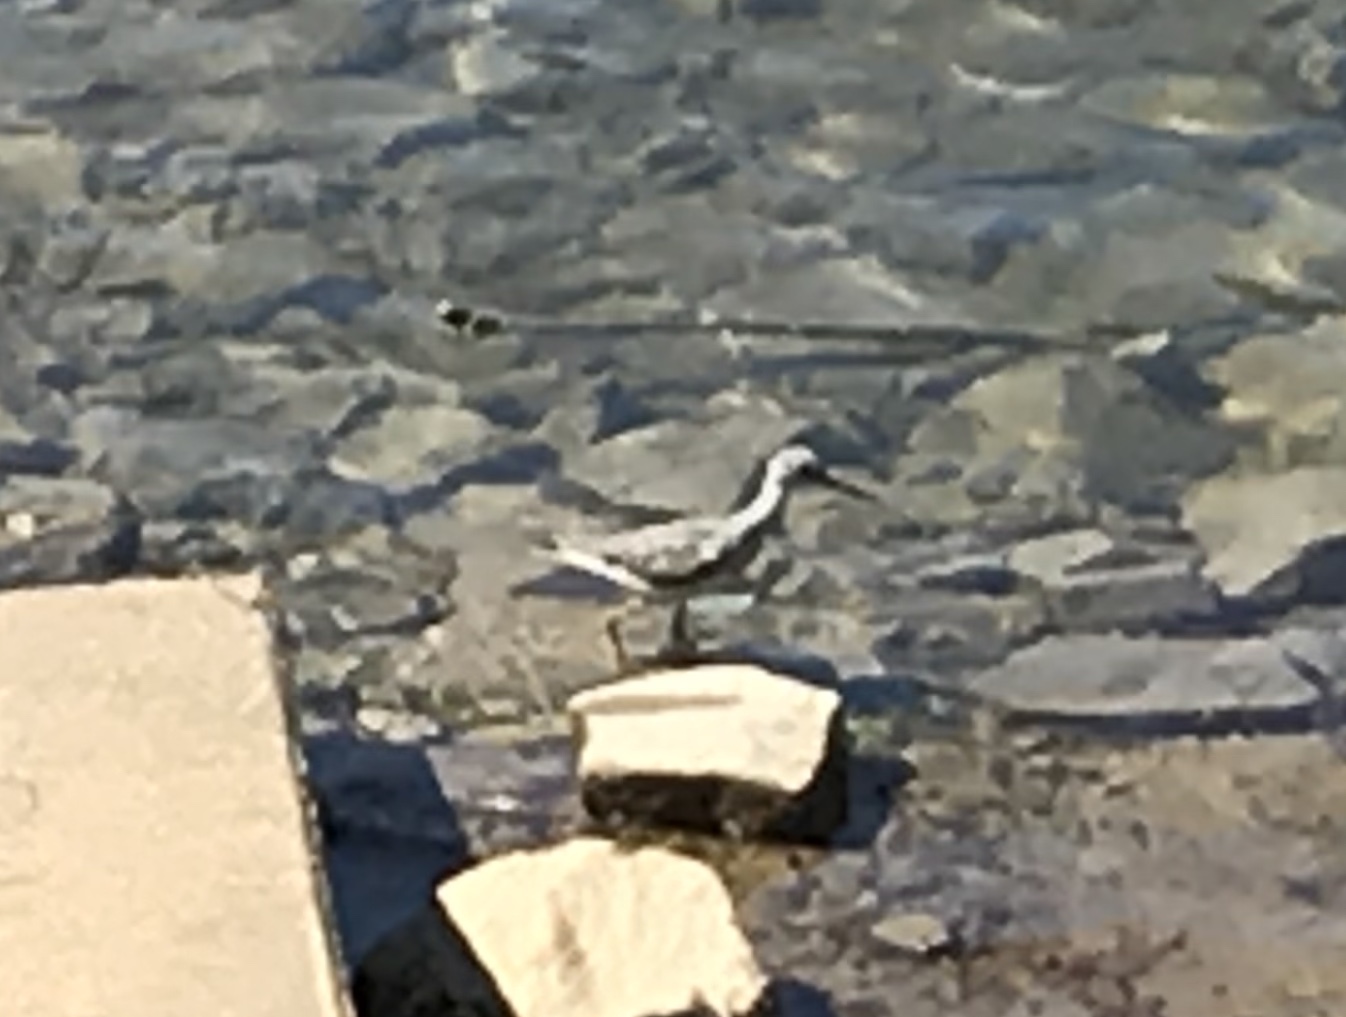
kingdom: Animalia
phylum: Chordata
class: Aves
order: Charadriiformes
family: Scolopacidae
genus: Tringa
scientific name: Tringa
